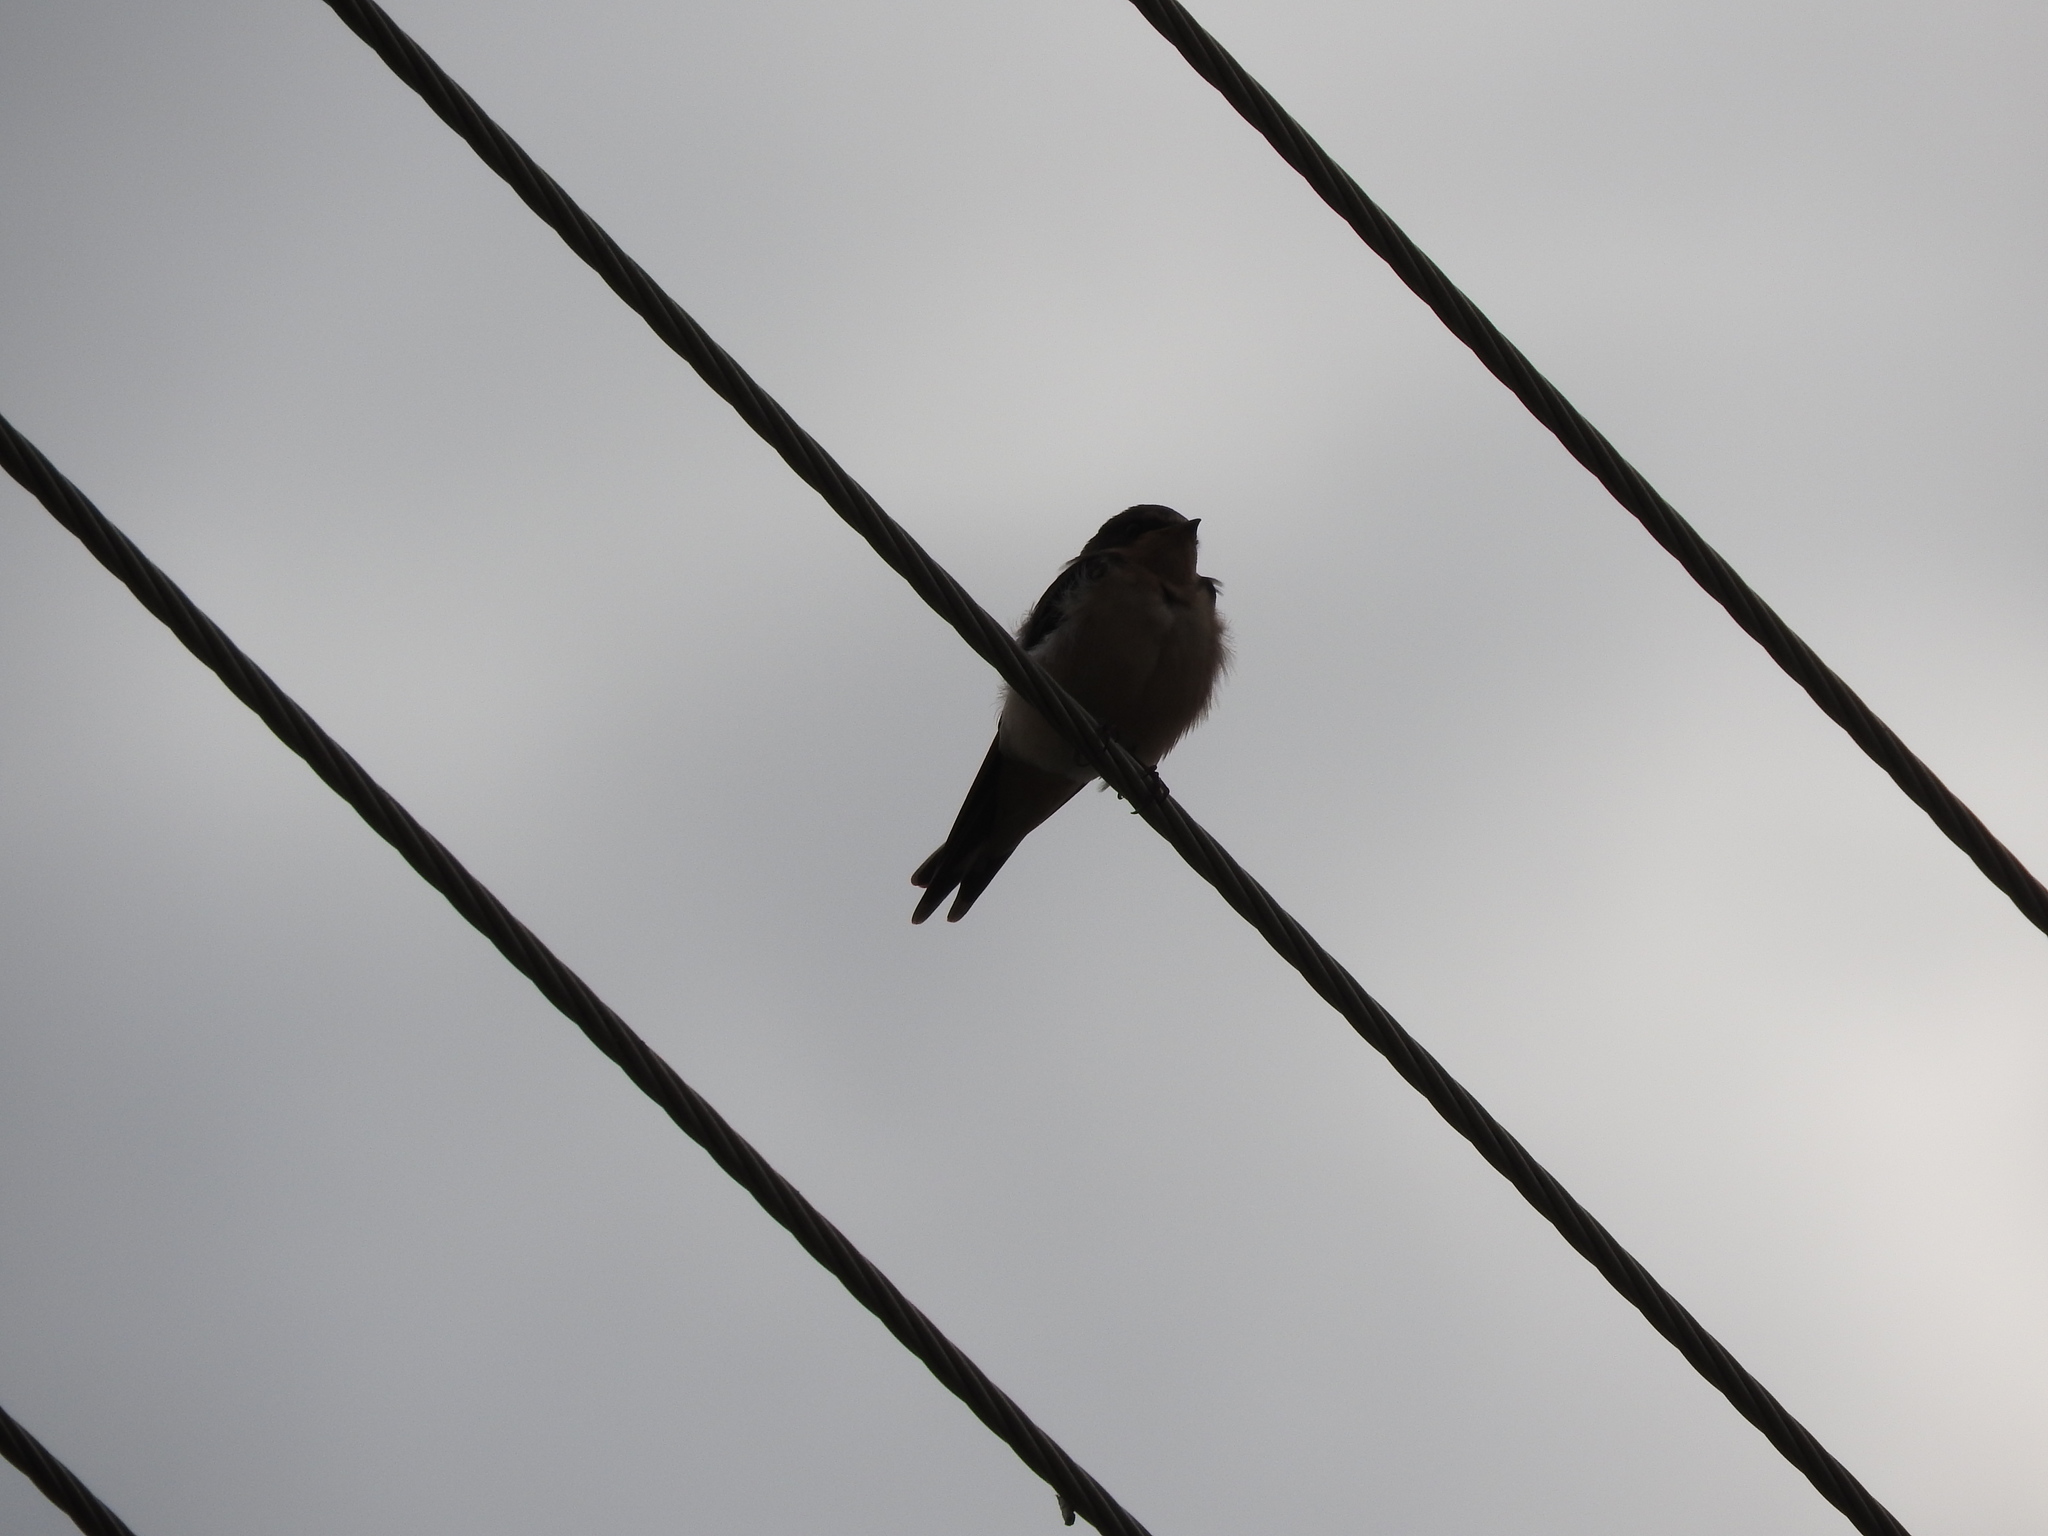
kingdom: Animalia
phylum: Chordata
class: Aves
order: Passeriformes
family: Hirundinidae
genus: Hirundo
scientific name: Hirundo rustica
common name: Barn swallow
